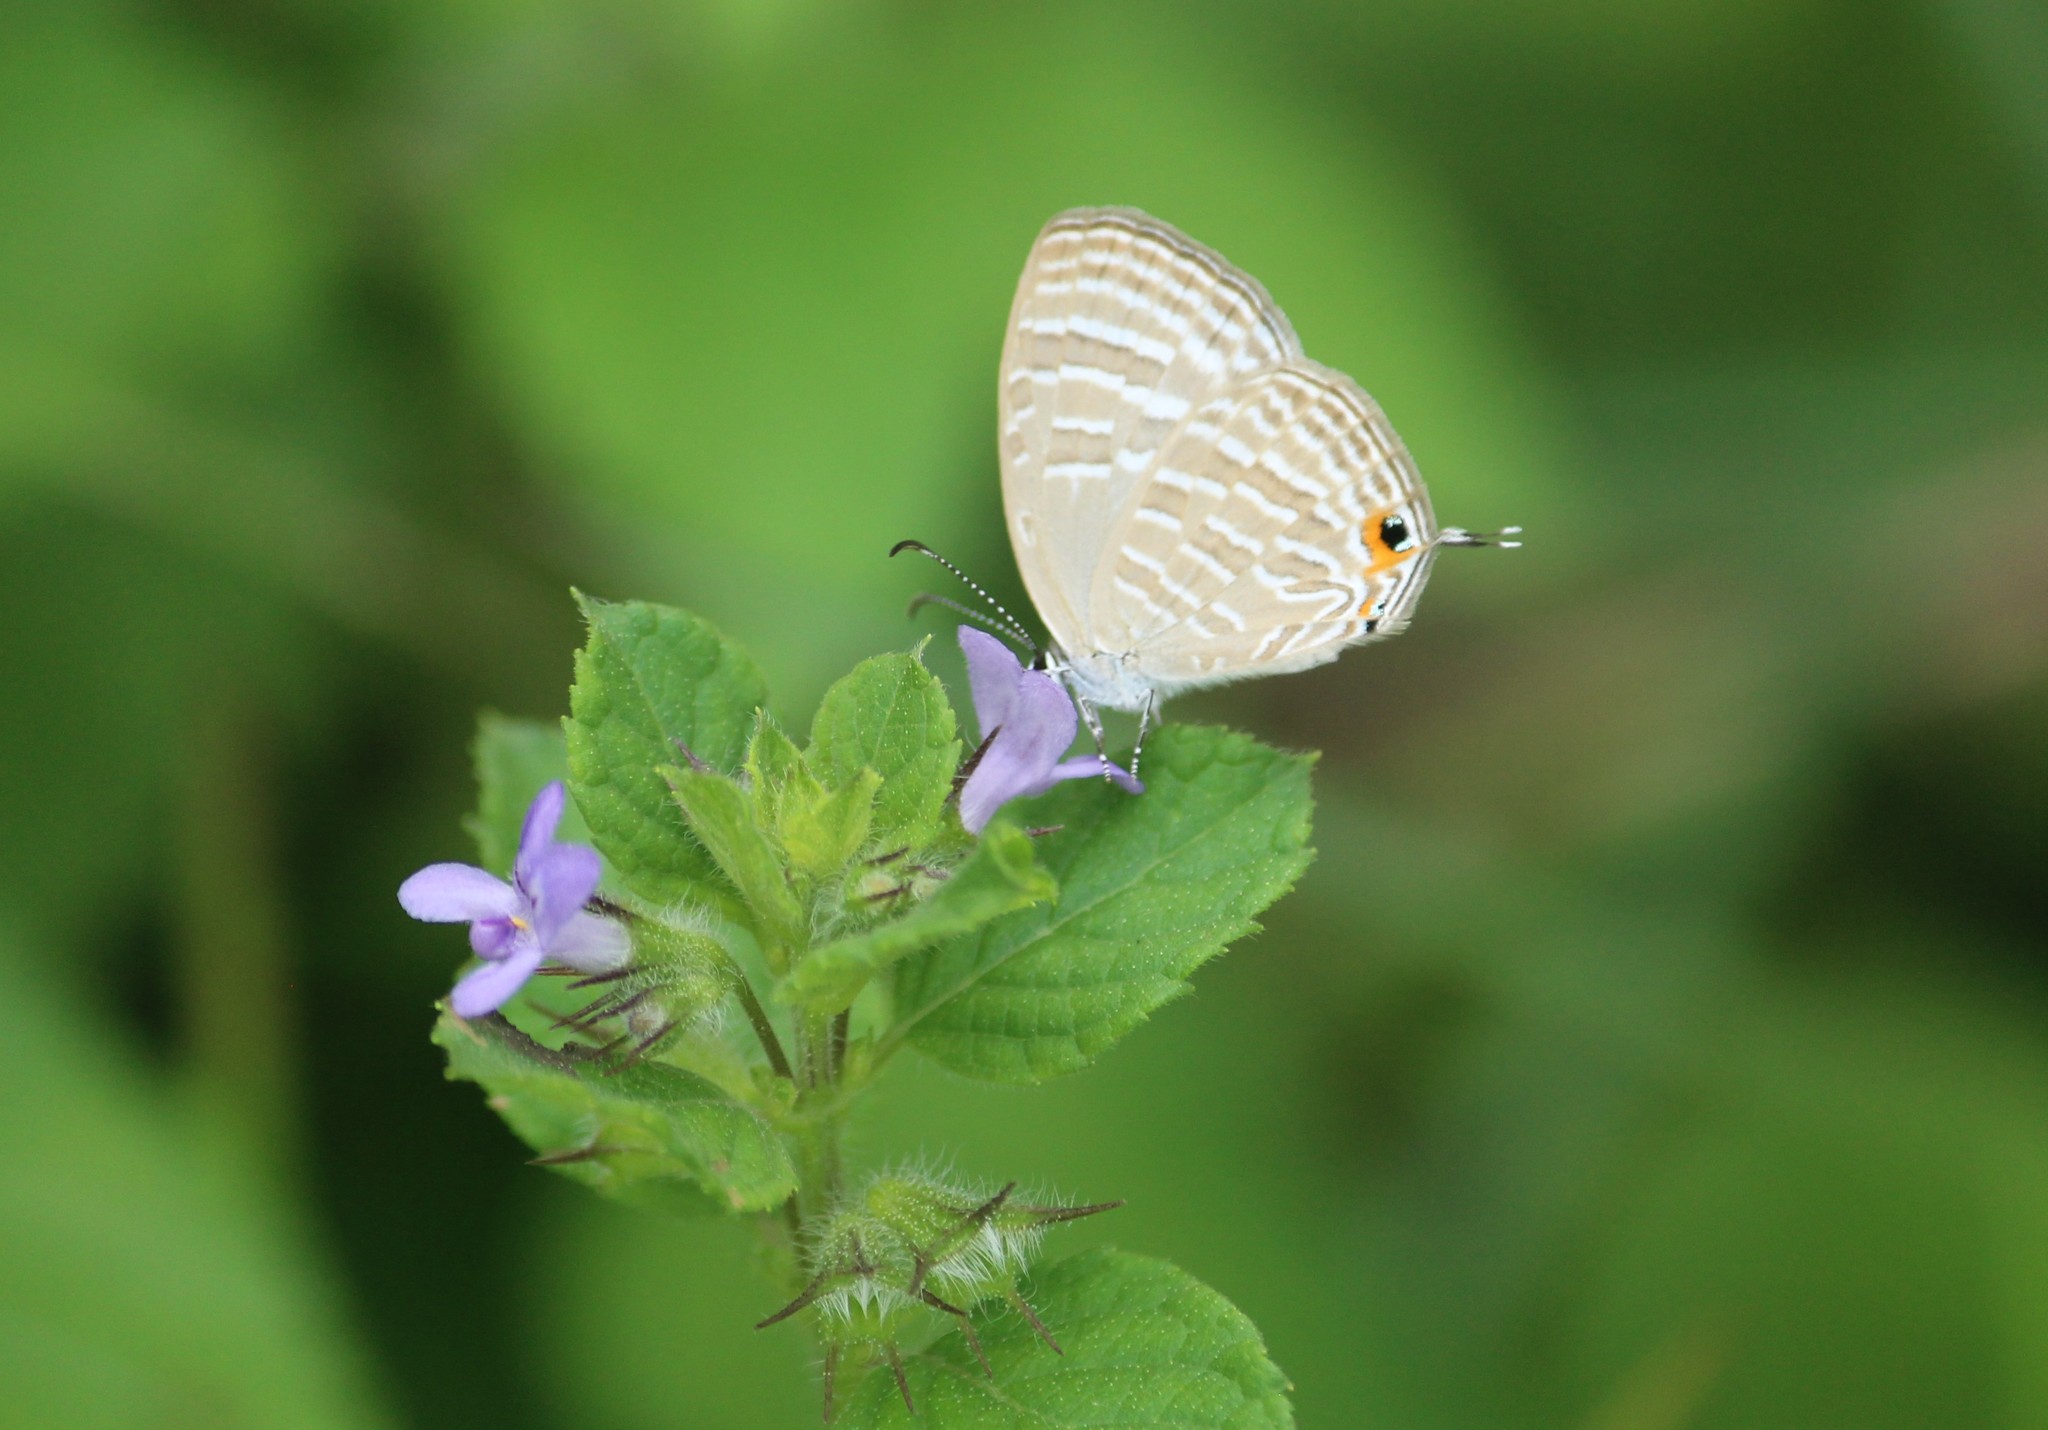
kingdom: Animalia
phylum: Arthropoda
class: Insecta
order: Lepidoptera
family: Lycaenidae
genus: Jamides
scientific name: Jamides celeno
